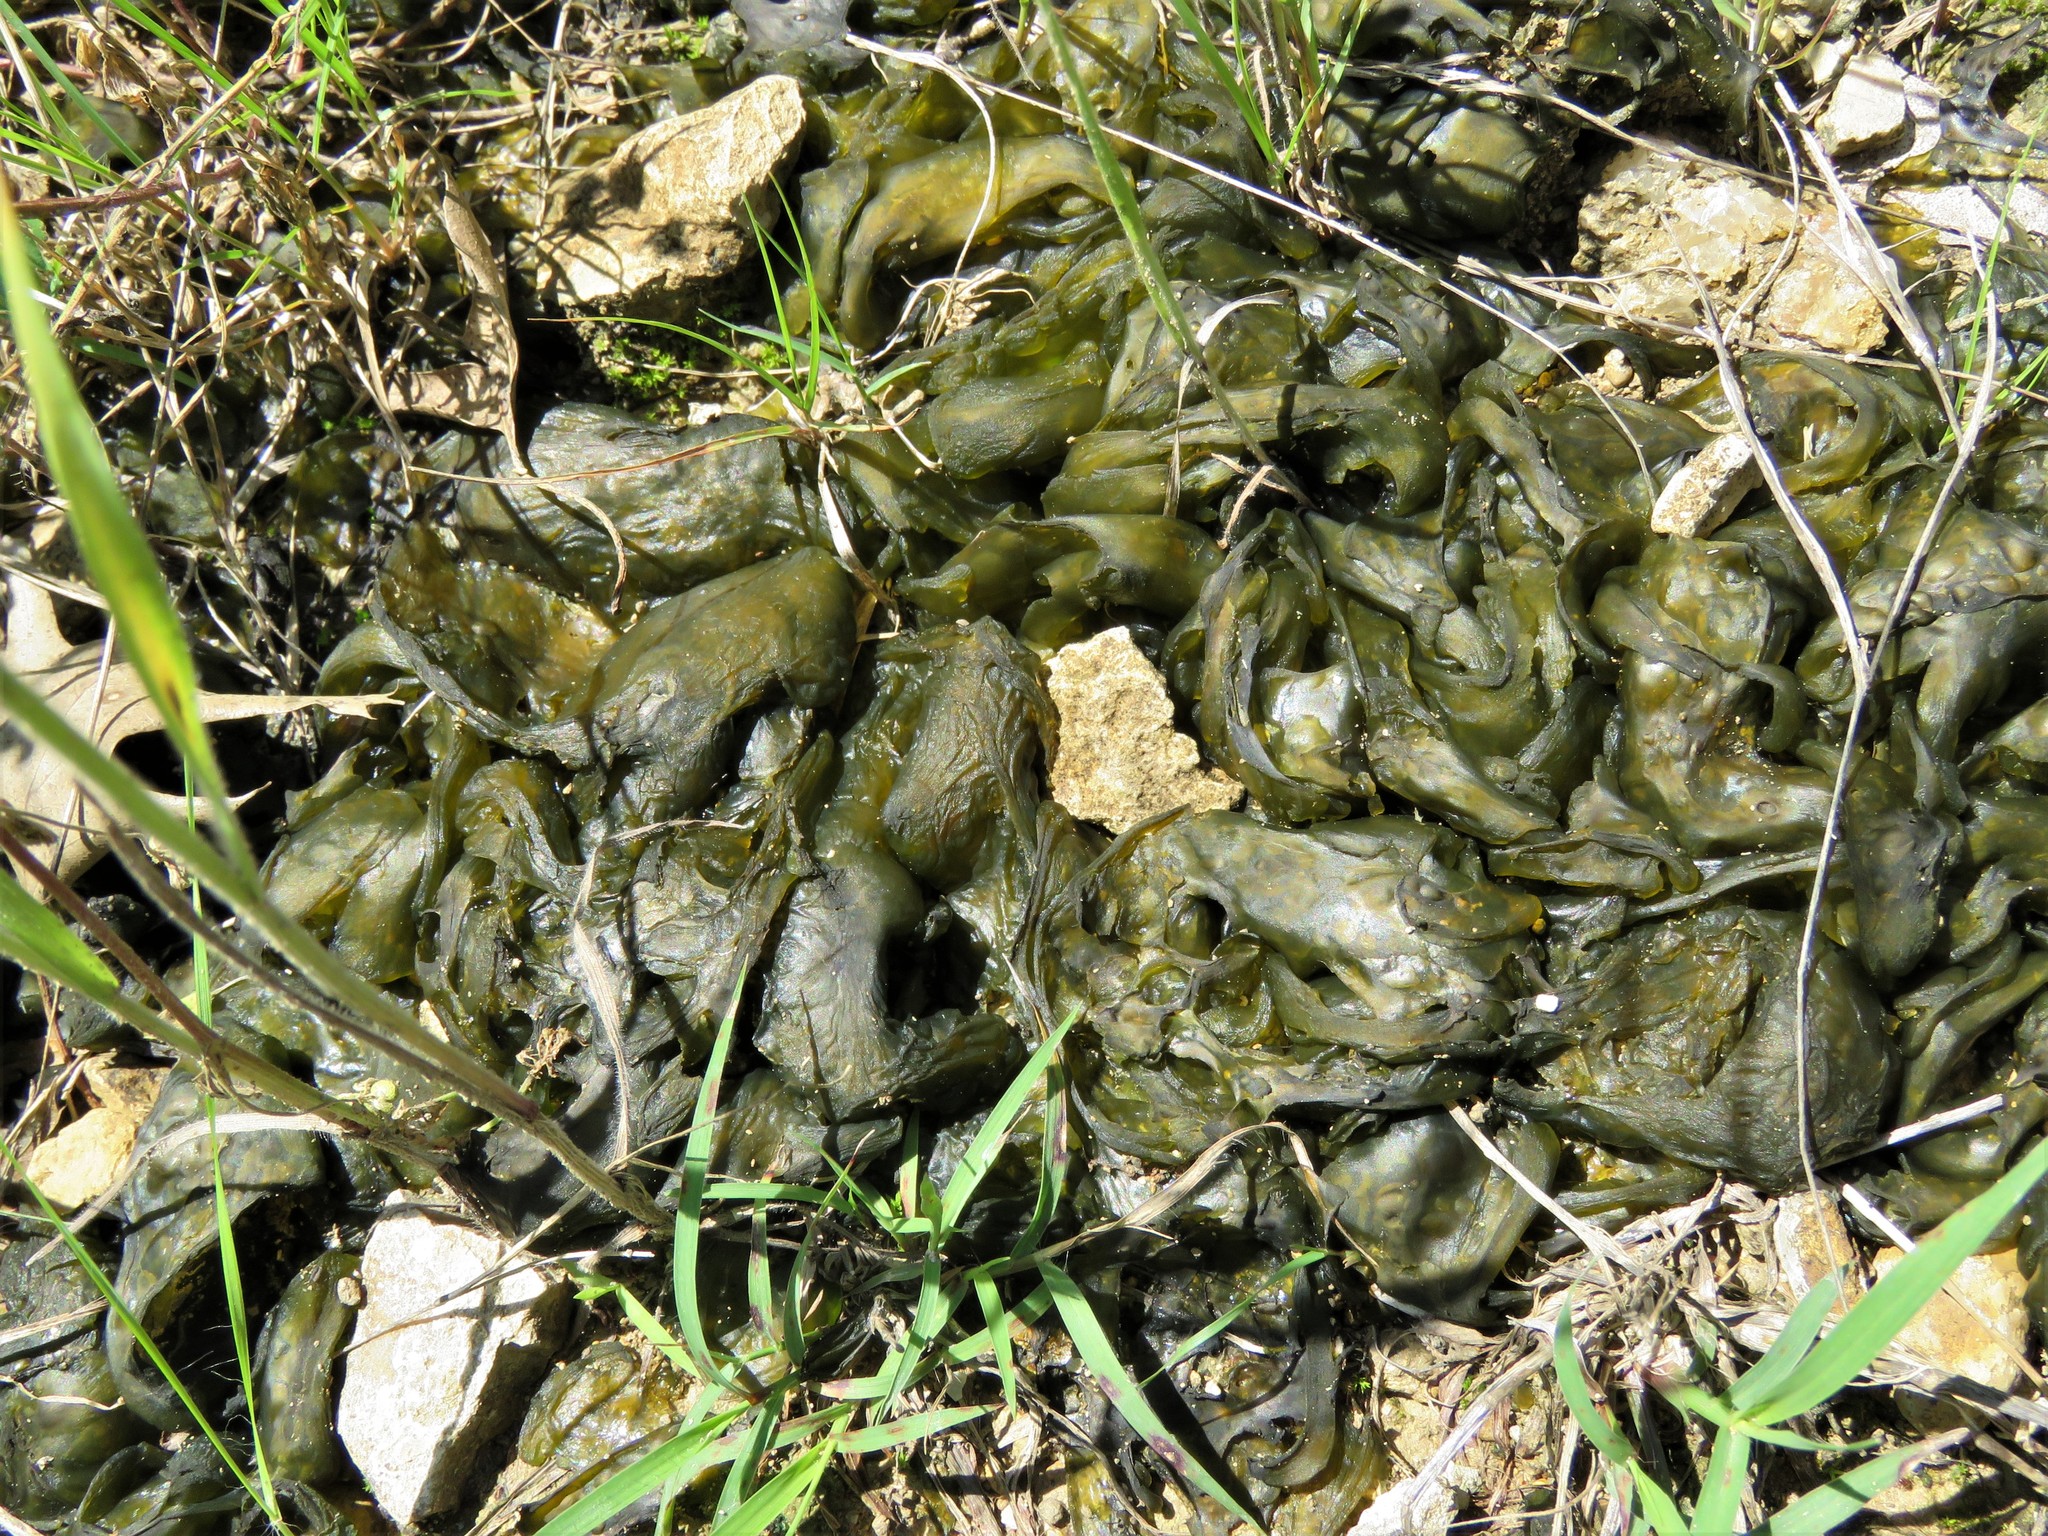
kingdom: Bacteria
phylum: Cyanobacteria
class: Cyanobacteriia
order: Cyanobacteriales
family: Nostocaceae
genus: Nostoc
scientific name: Nostoc commune
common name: Star jelly
